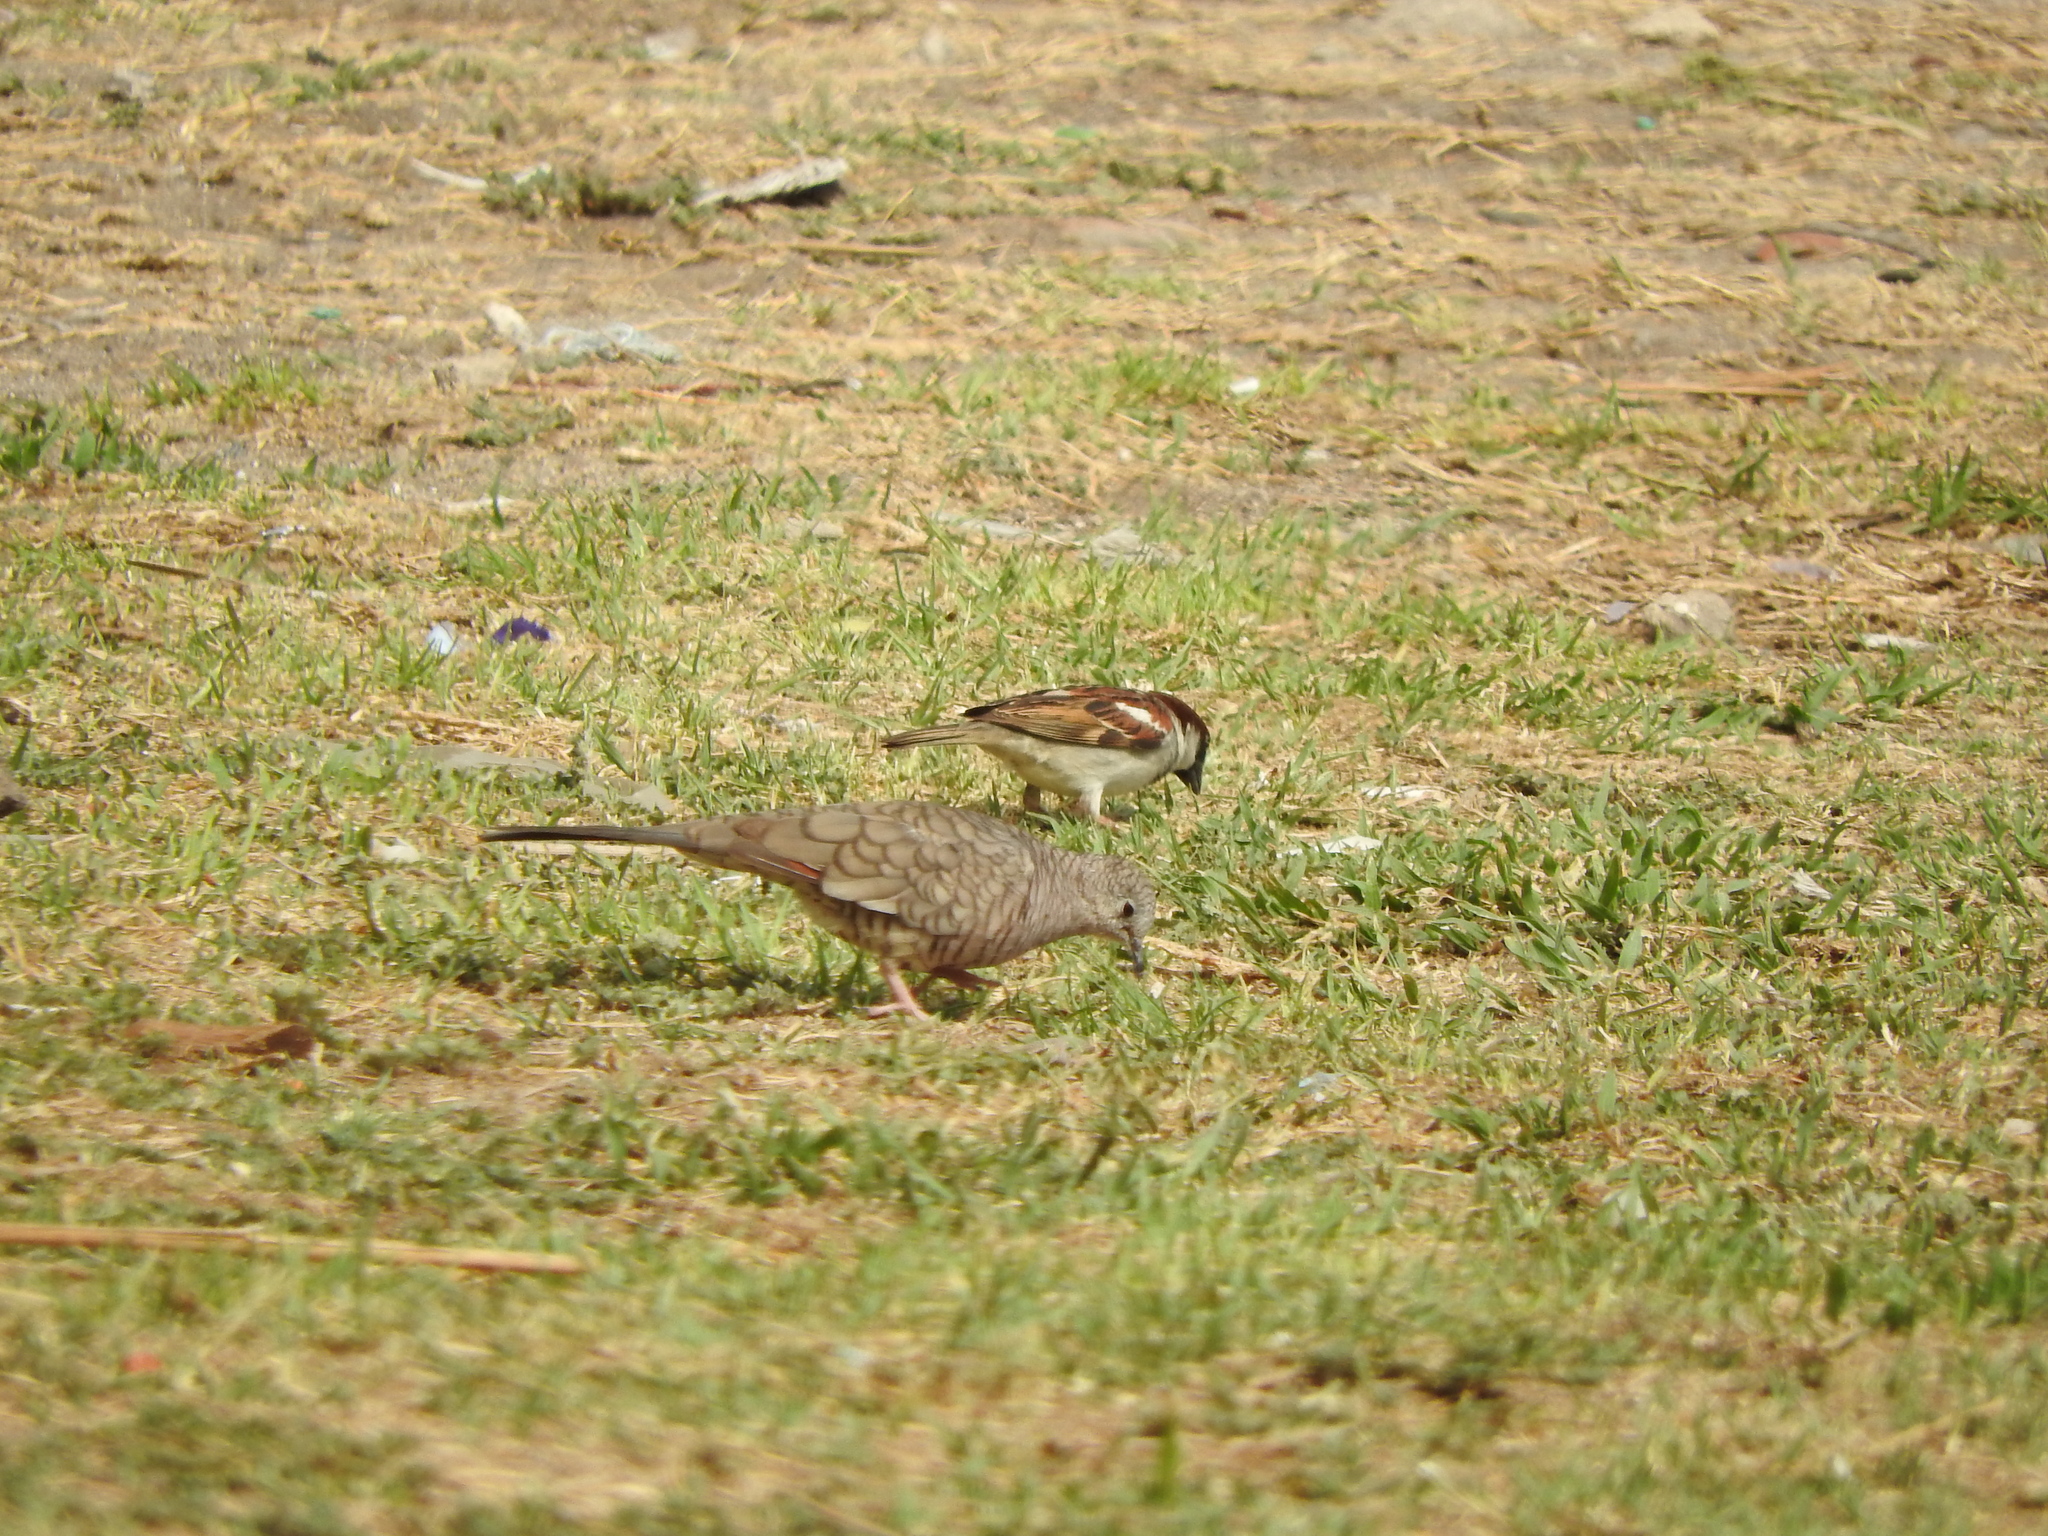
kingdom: Animalia
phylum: Chordata
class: Aves
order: Passeriformes
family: Passeridae
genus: Passer
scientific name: Passer domesticus
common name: House sparrow
